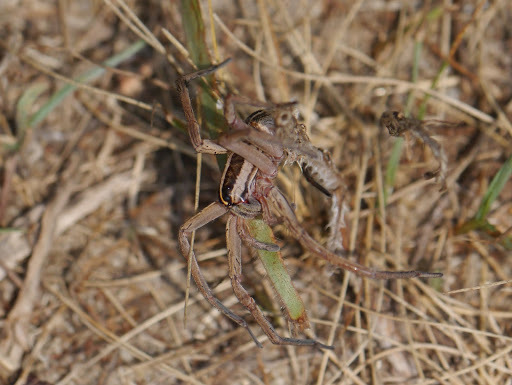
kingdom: Animalia
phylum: Arthropoda
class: Arachnida
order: Araneae
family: Lycosidae
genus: Rabidosa
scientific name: Rabidosa
